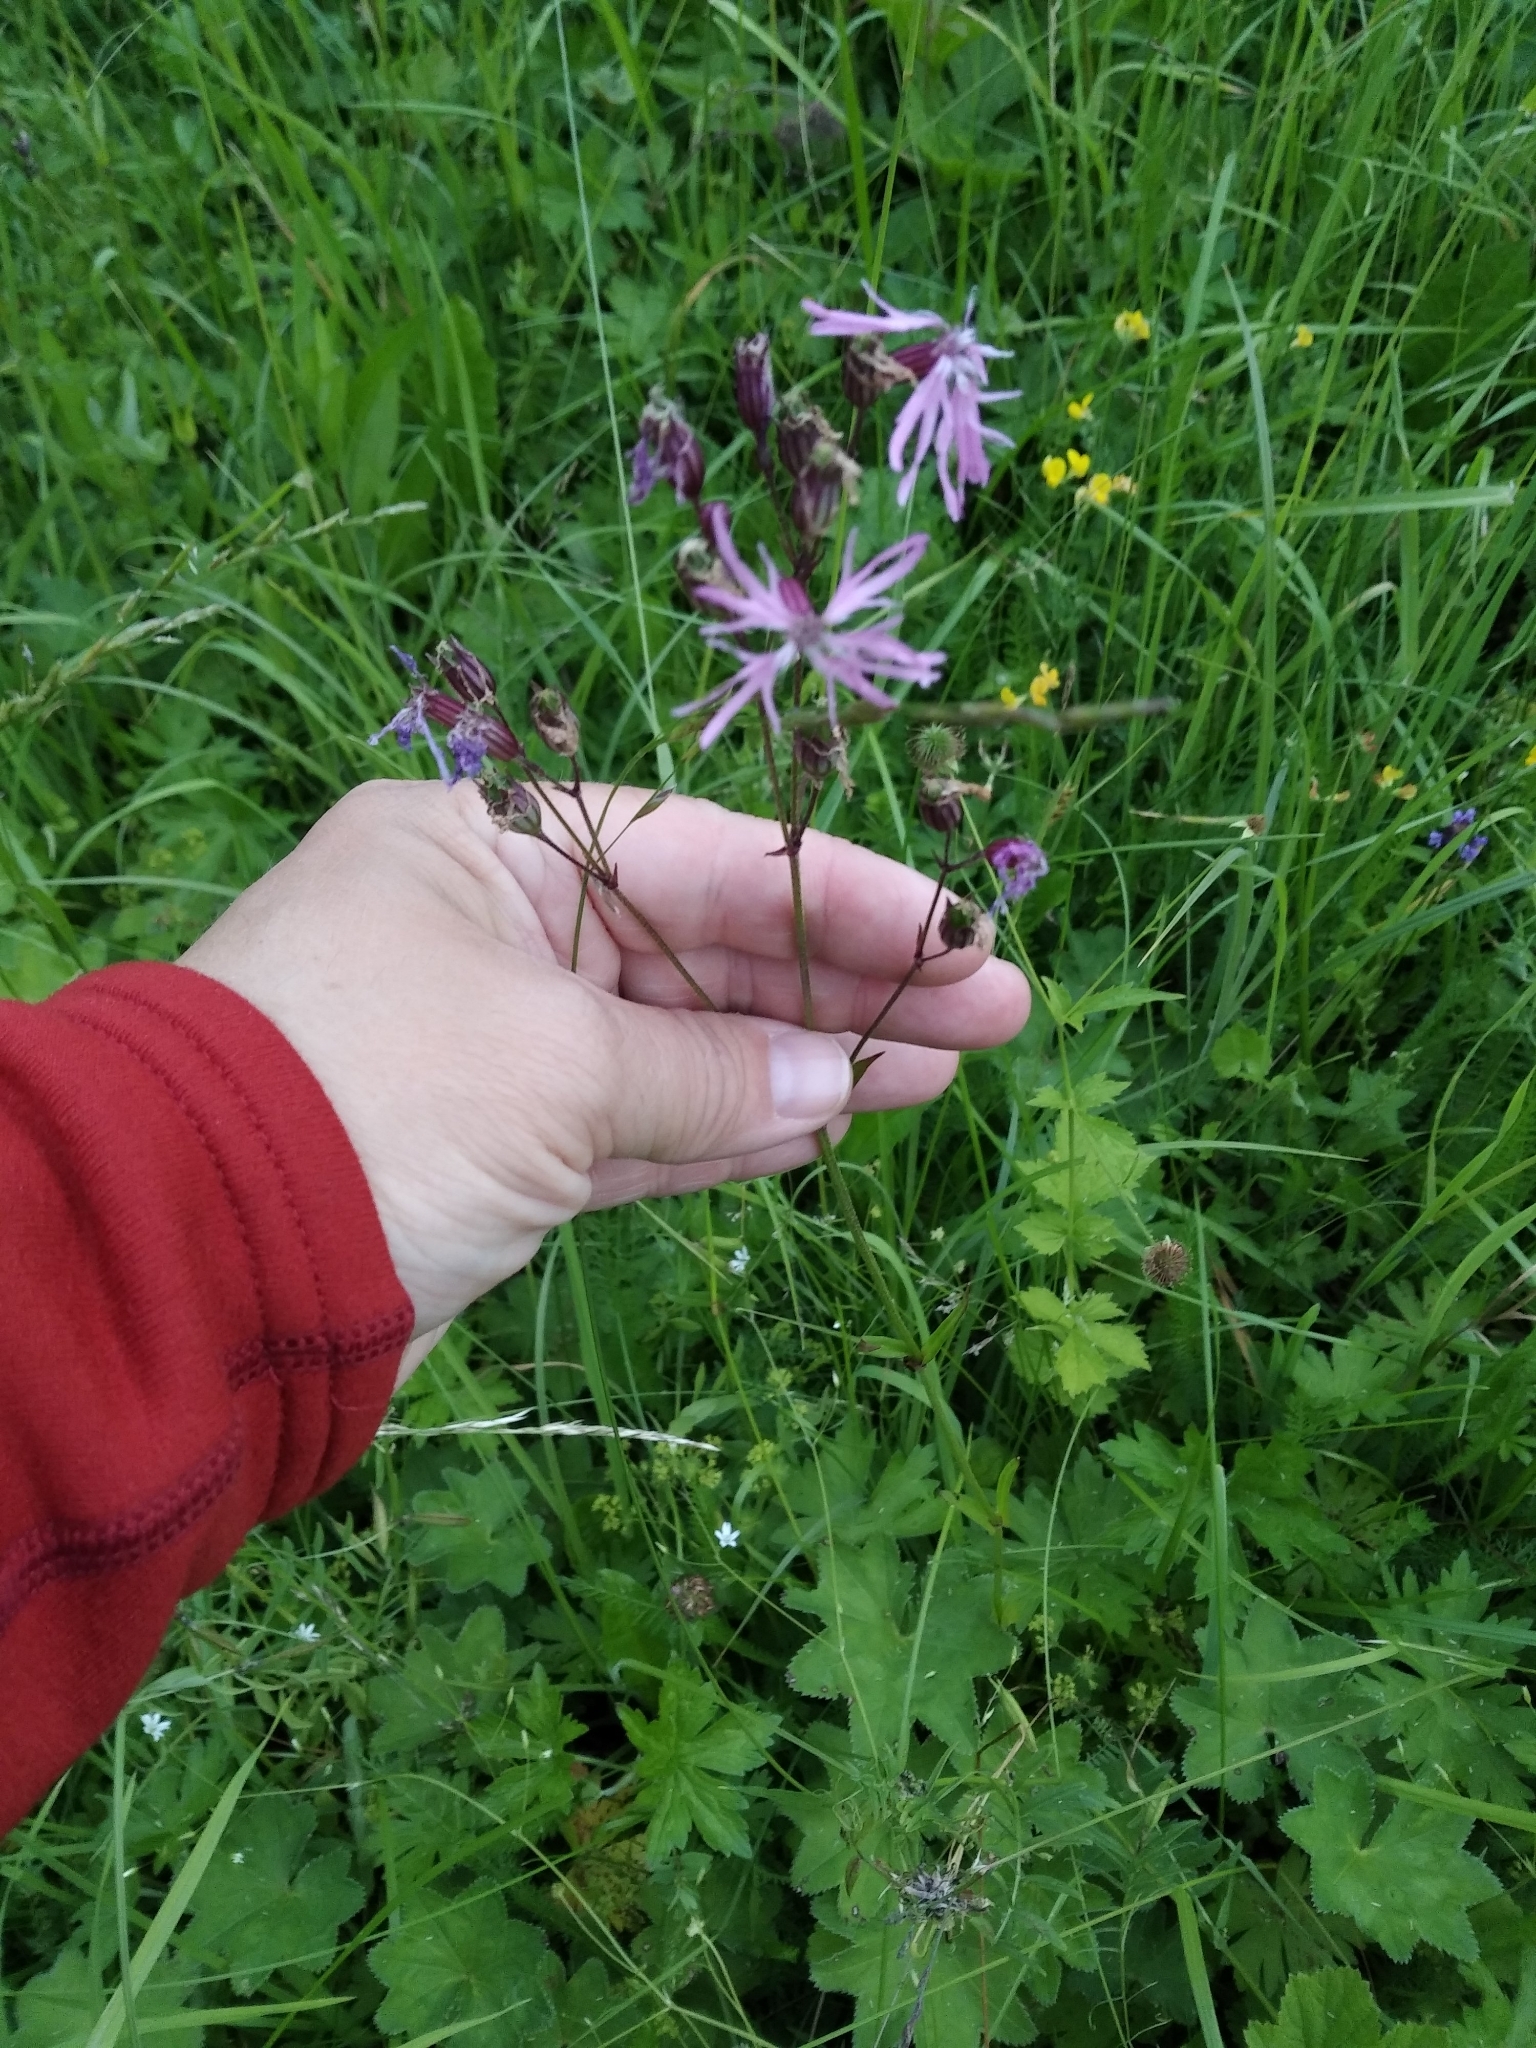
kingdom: Plantae
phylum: Tracheophyta
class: Magnoliopsida
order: Caryophyllales
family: Caryophyllaceae
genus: Silene
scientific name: Silene flos-cuculi
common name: Ragged-robin
